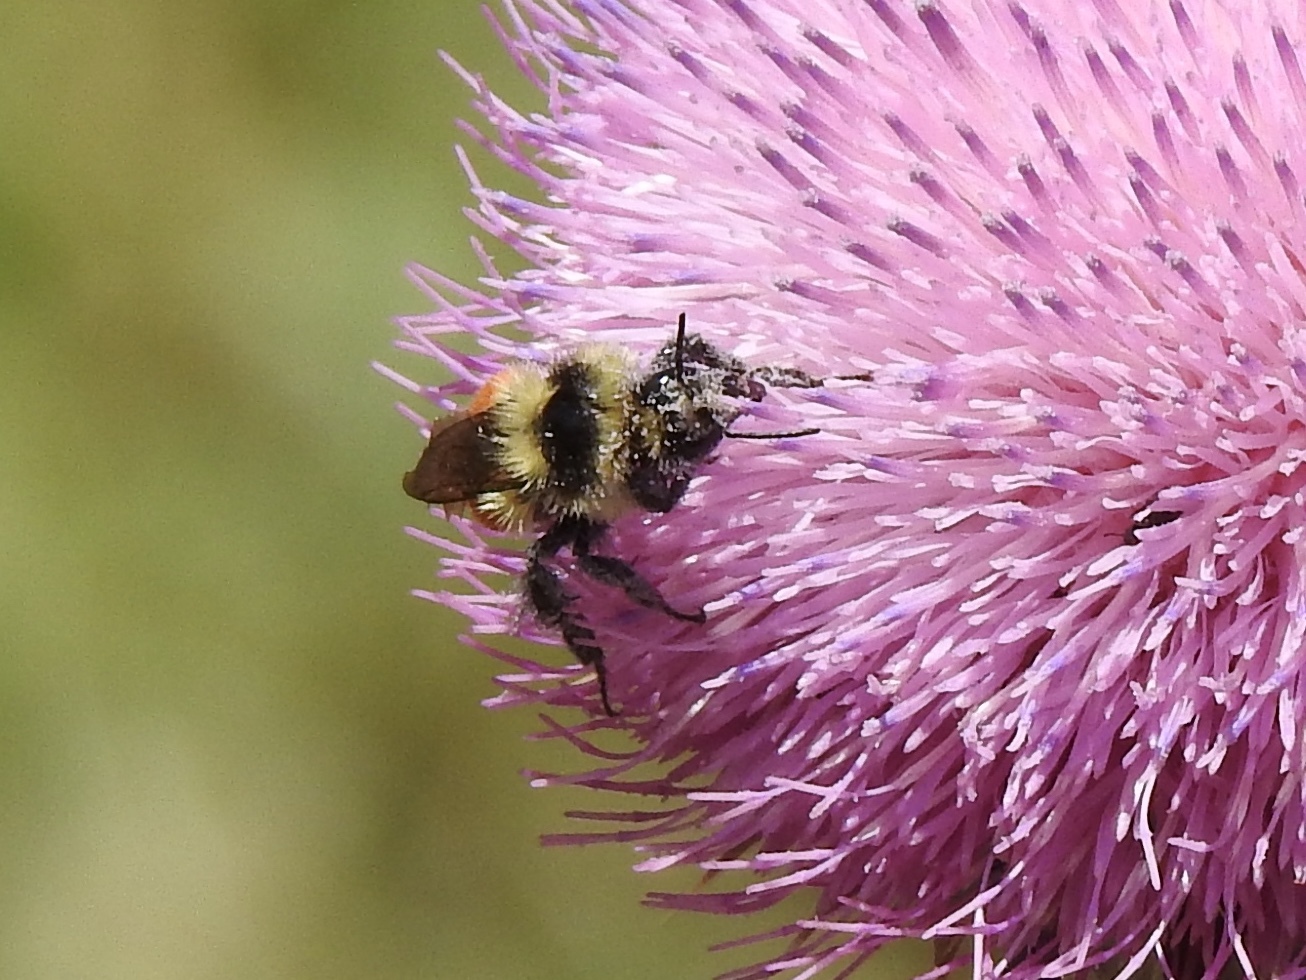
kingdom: Animalia
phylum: Arthropoda
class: Insecta
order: Hymenoptera
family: Apidae
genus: Bombus
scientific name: Bombus huntii
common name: Hunt bumble bee
